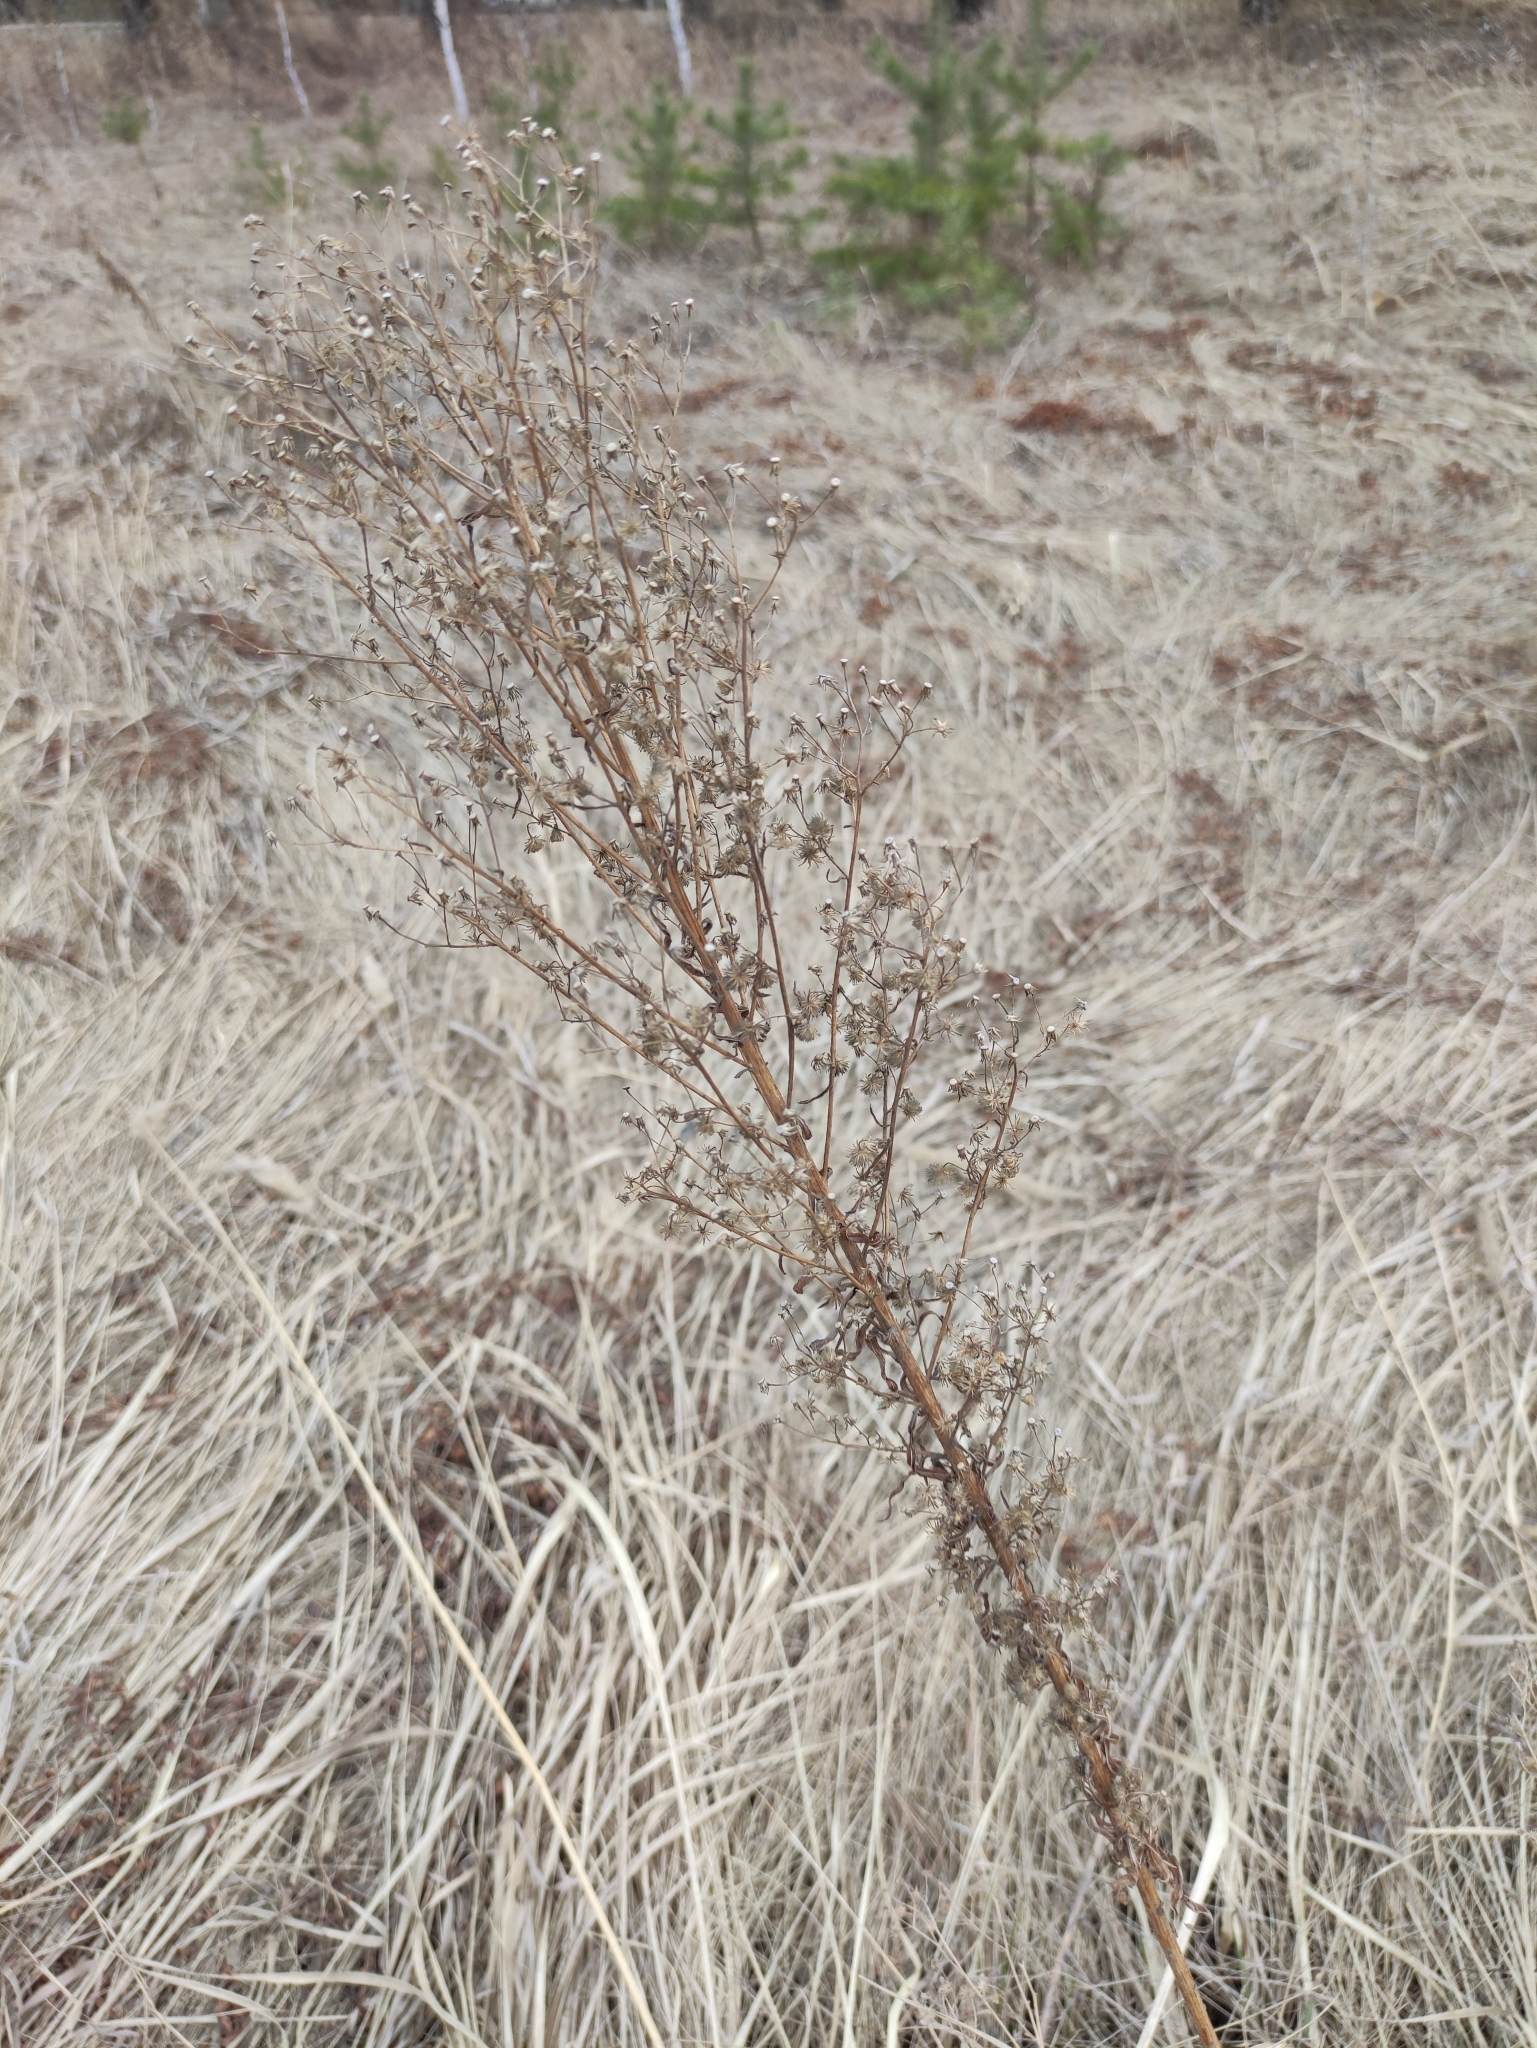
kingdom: Plantae
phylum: Tracheophyta
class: Magnoliopsida
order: Asterales
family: Asteraceae
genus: Erigeron
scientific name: Erigeron canadensis
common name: Canadian fleabane
